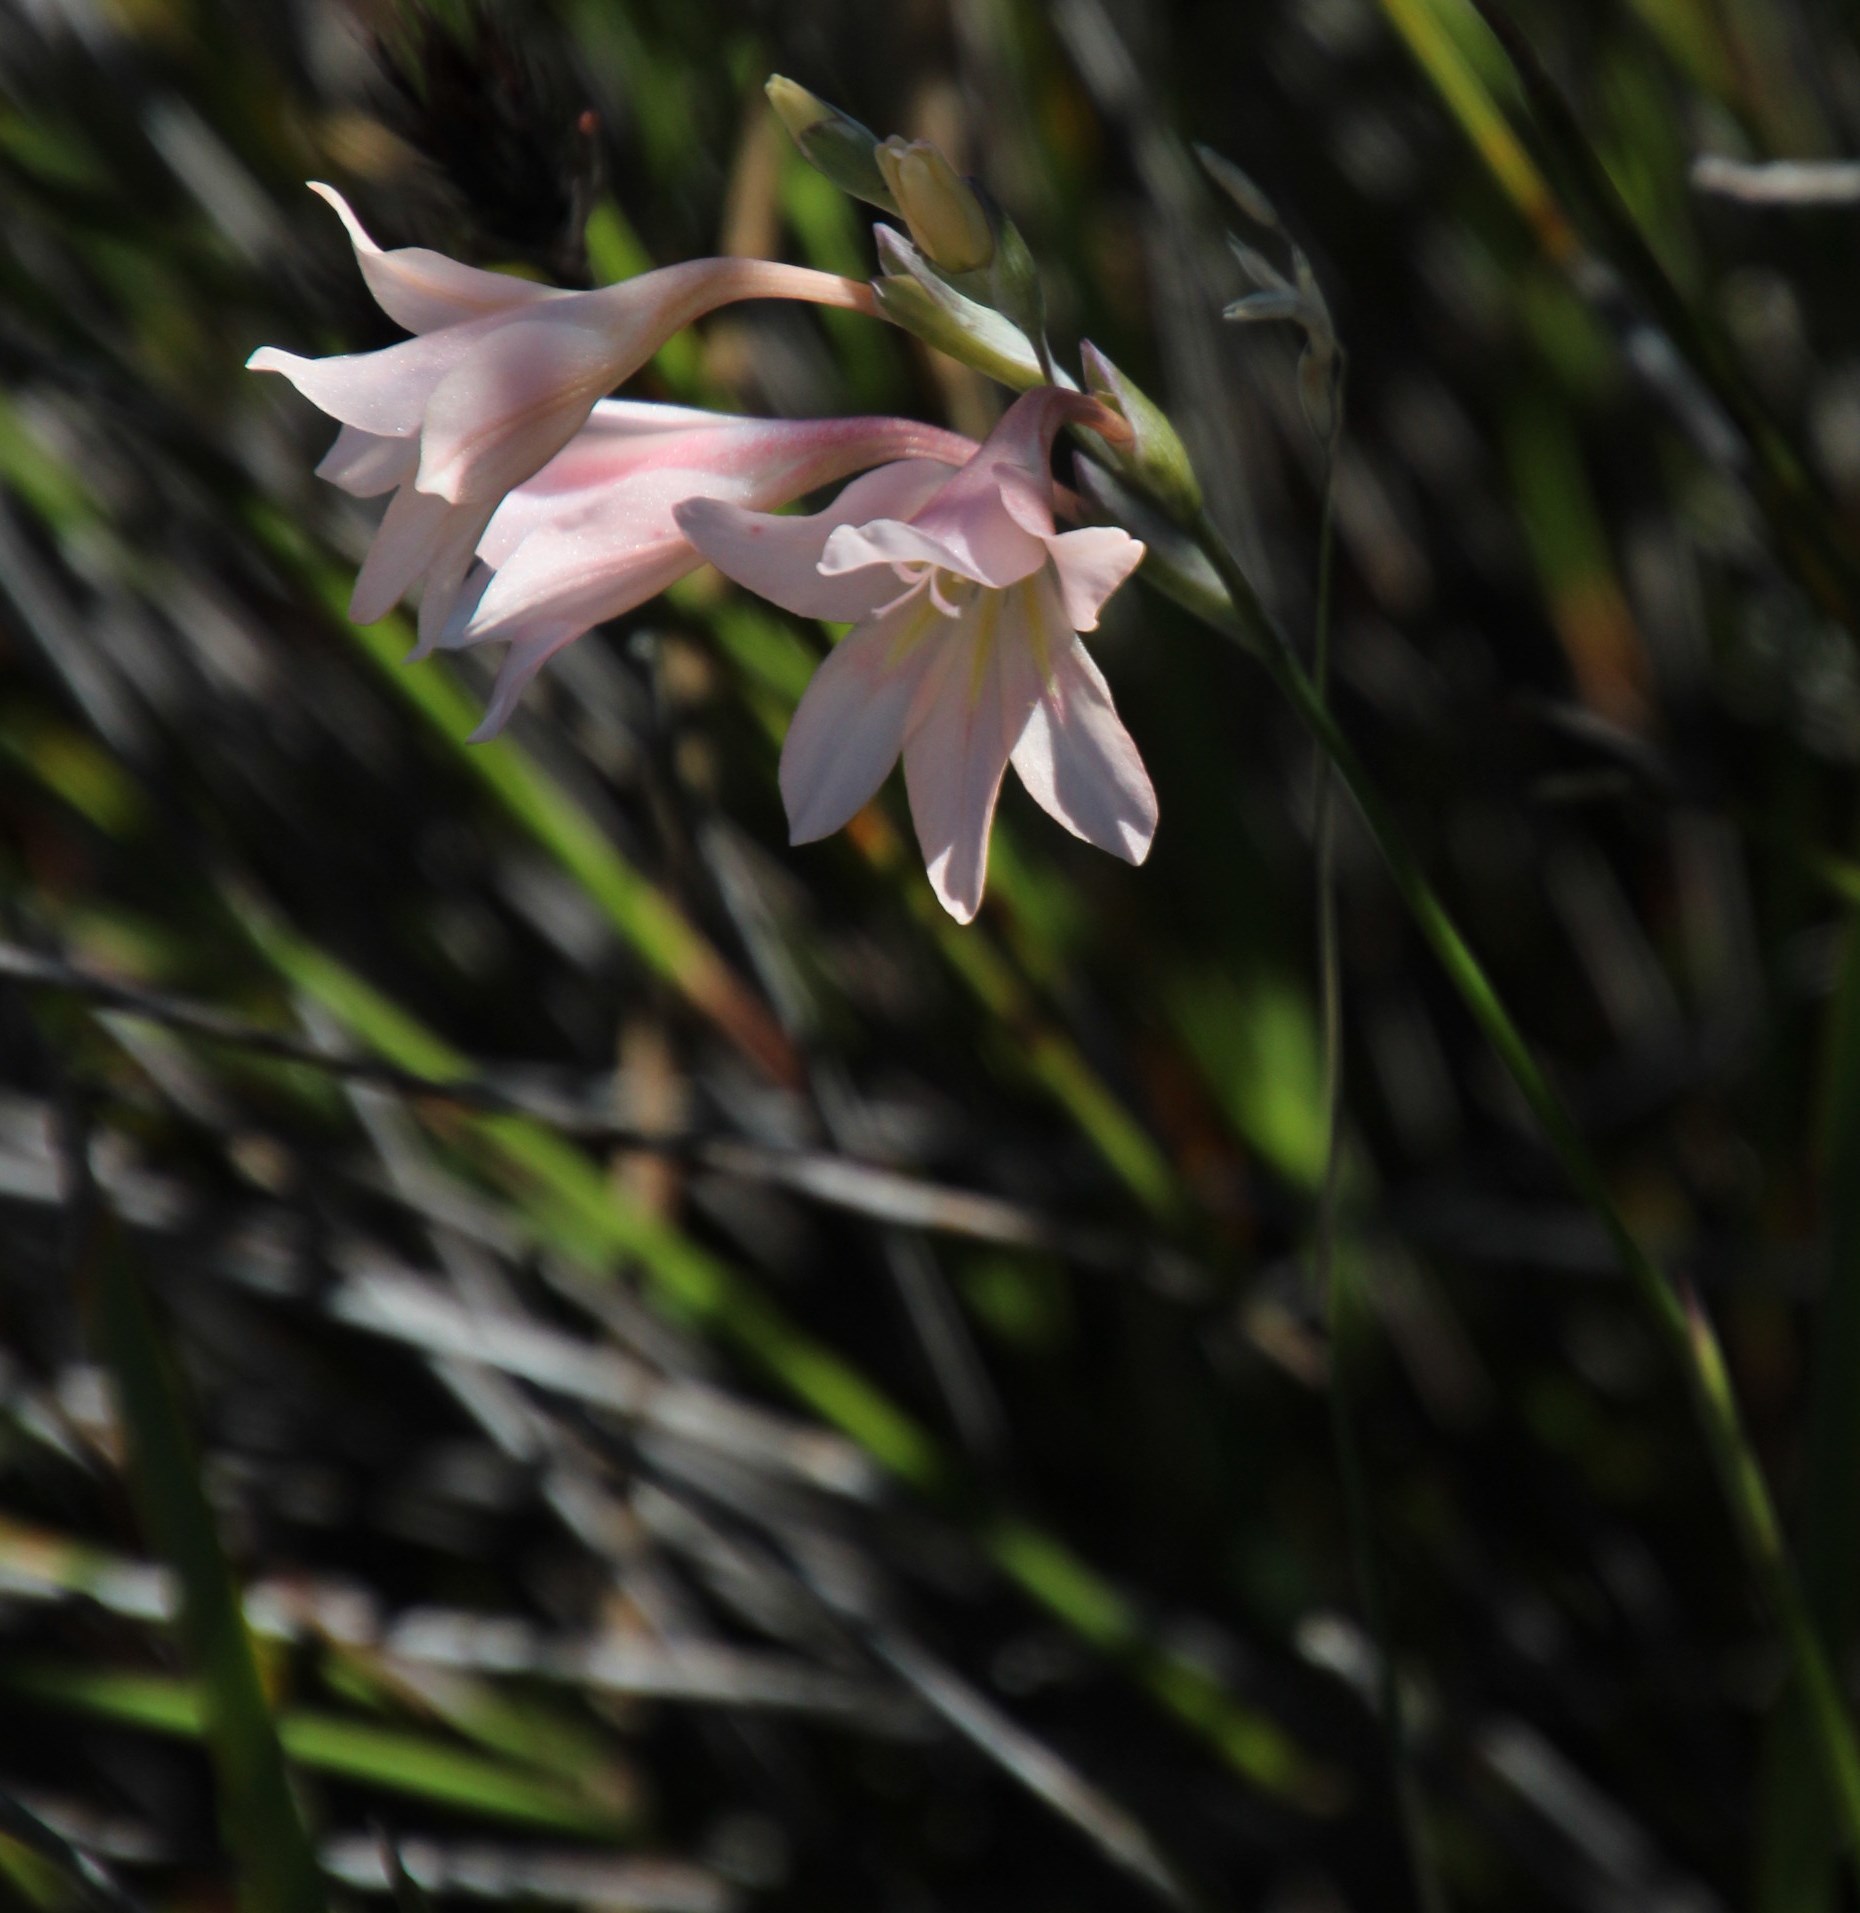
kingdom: Plantae
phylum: Tracheophyta
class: Liliopsida
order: Asparagales
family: Iridaceae
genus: Gladiolus
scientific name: Gladiolus monticola
